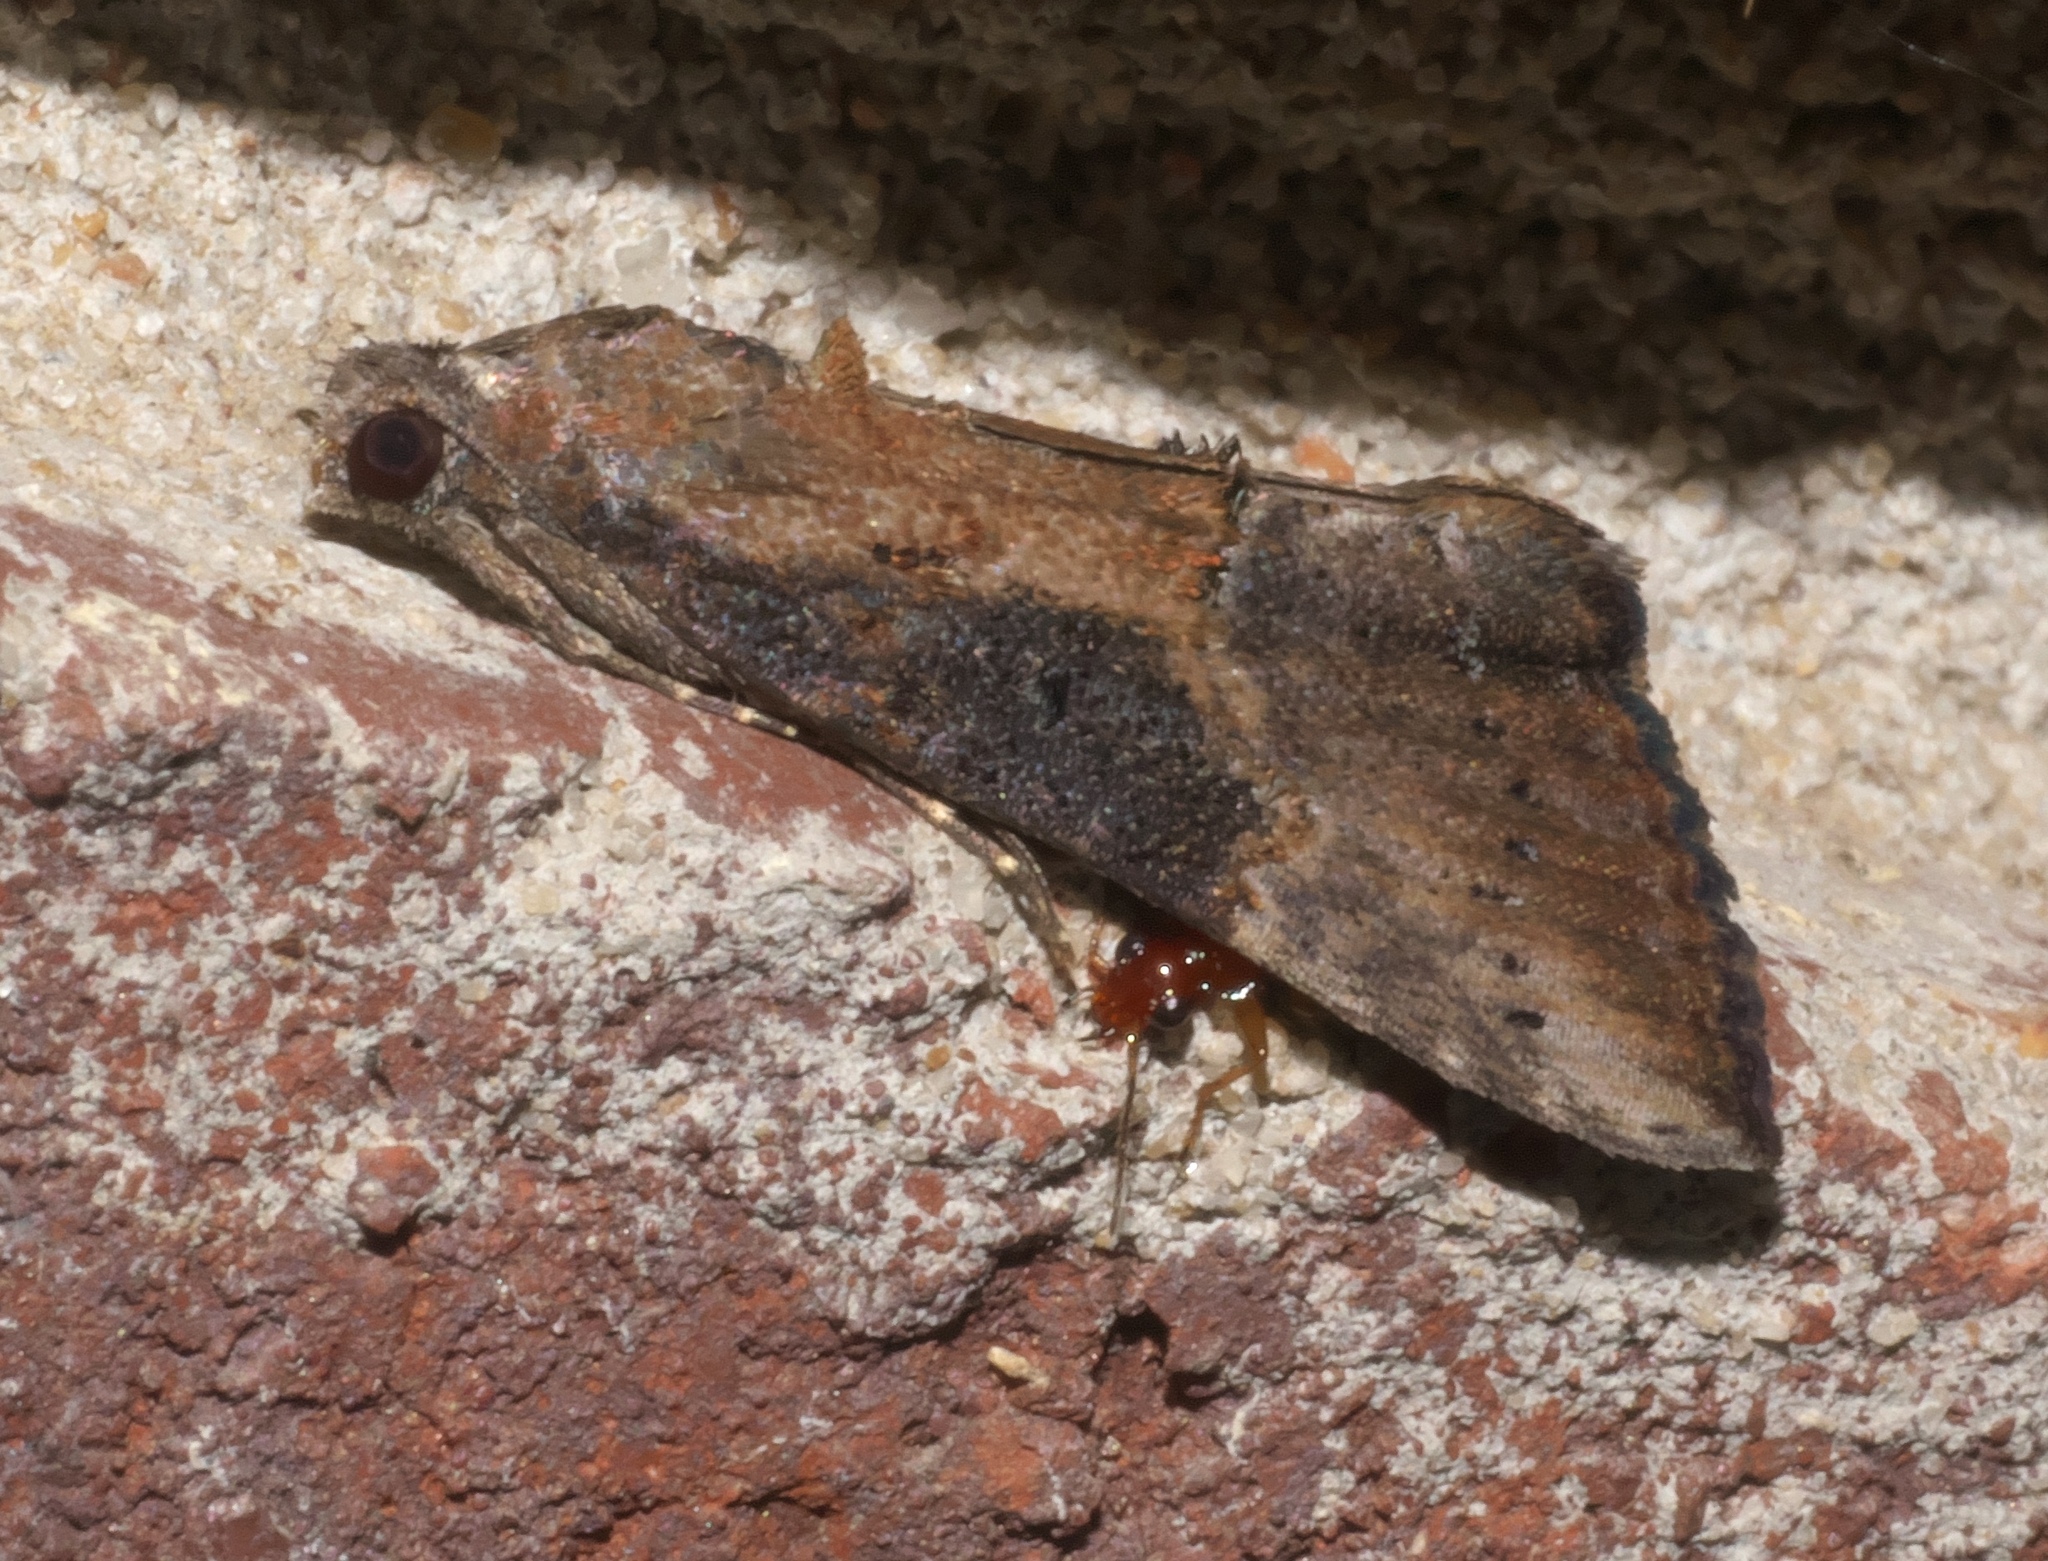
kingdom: Animalia
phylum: Arthropoda
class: Insecta
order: Lepidoptera
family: Erebidae
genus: Hypena
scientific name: Hypena scabra
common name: Green cloverworm
